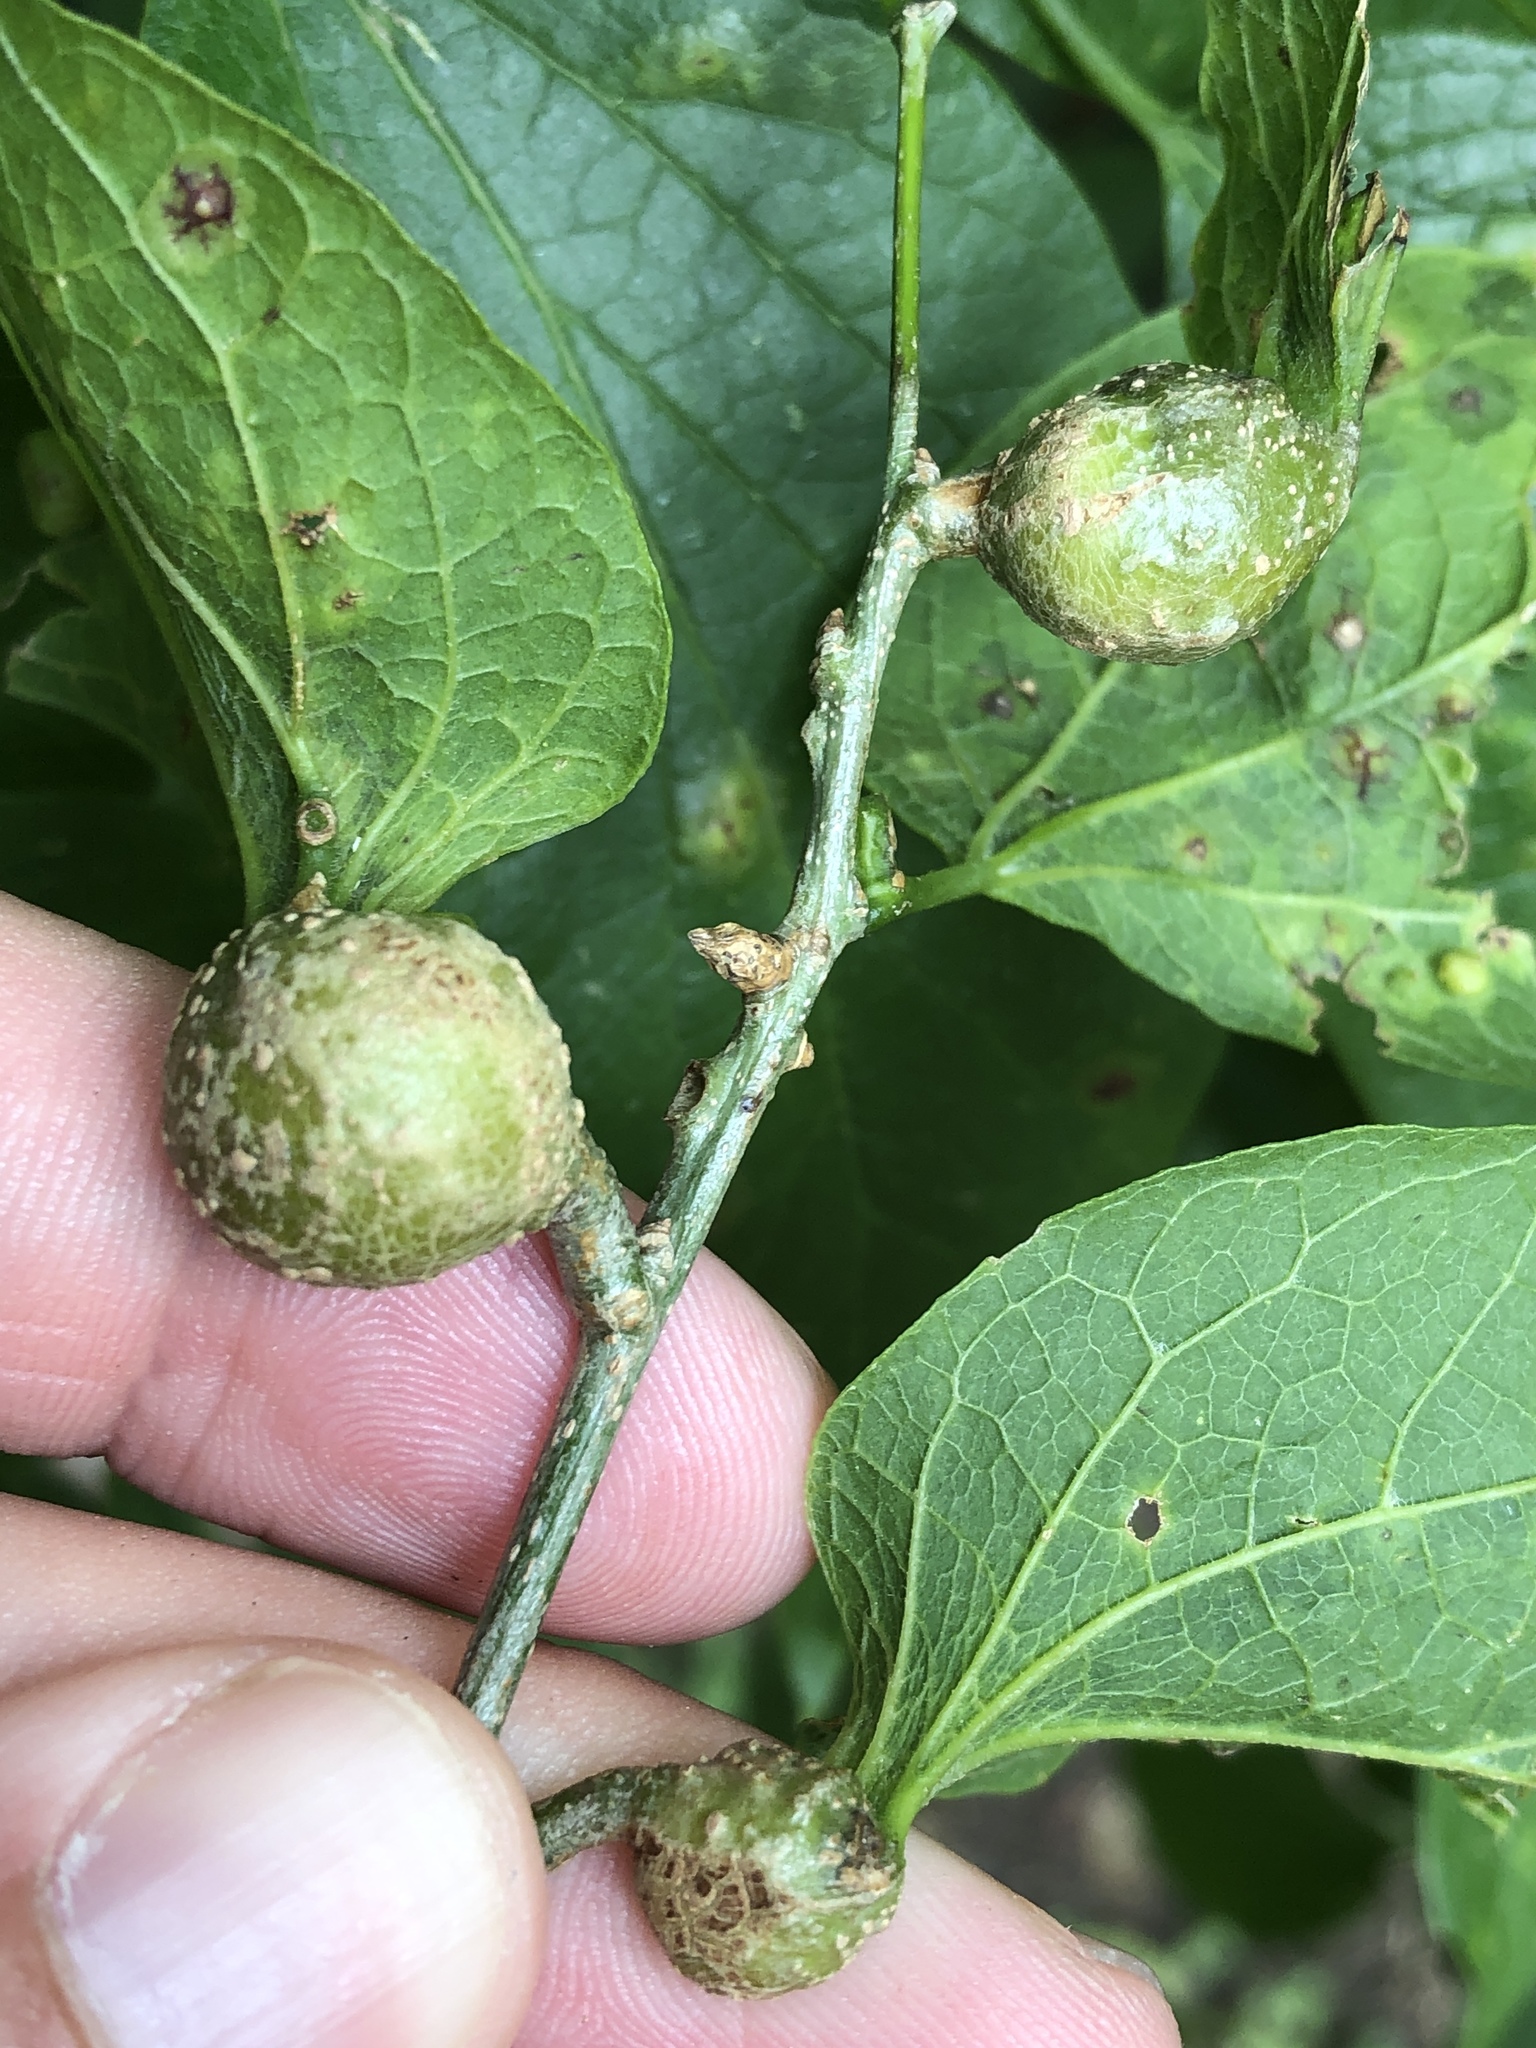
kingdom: Animalia
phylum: Arthropoda
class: Insecta
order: Hemiptera
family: Aphalaridae
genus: Pachypsylla
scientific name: Pachypsylla venusta
